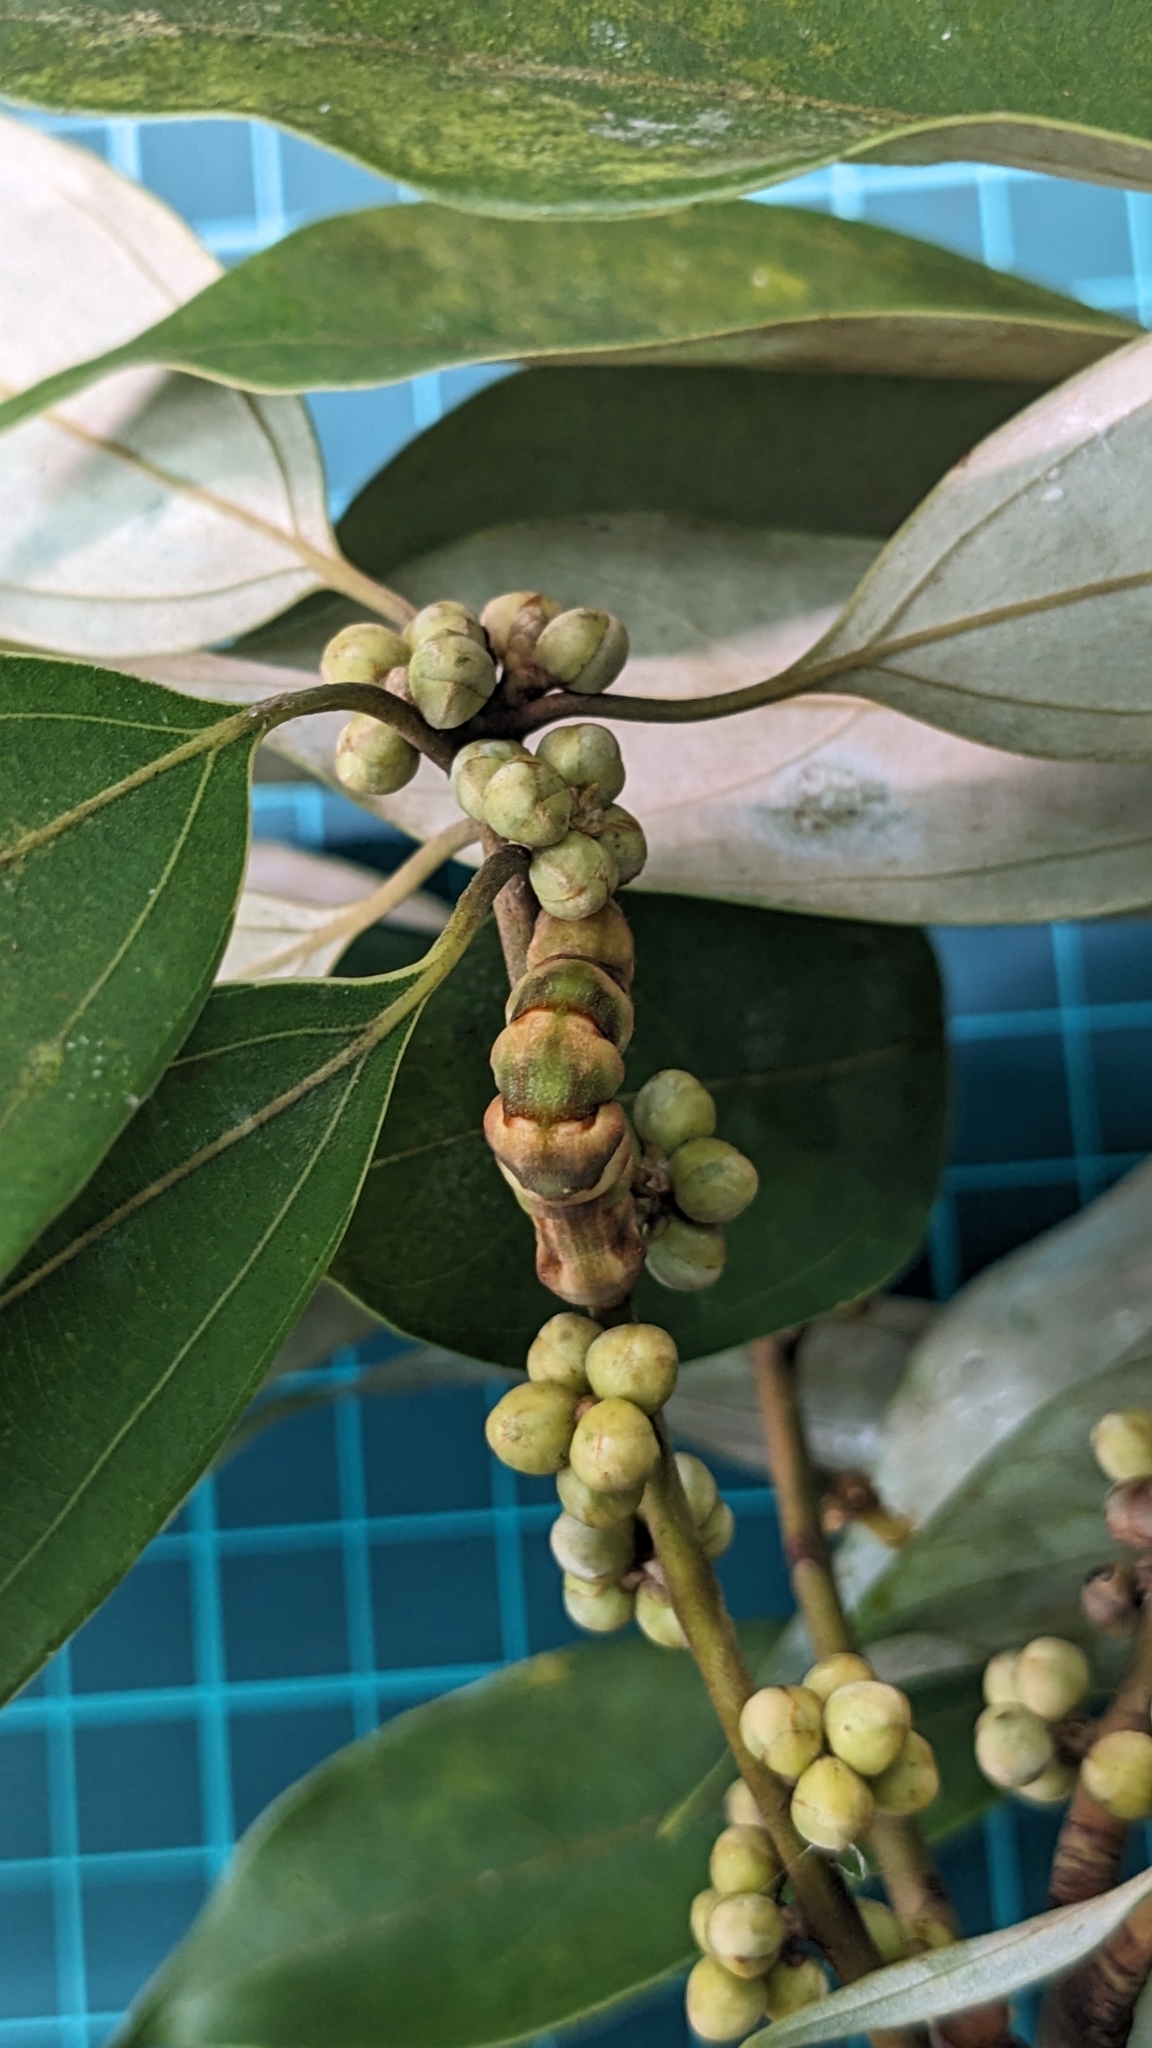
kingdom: Animalia
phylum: Arthropoda
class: Insecta
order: Lepidoptera
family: Geometridae
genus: Racotis
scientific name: Racotis boarmiaria
